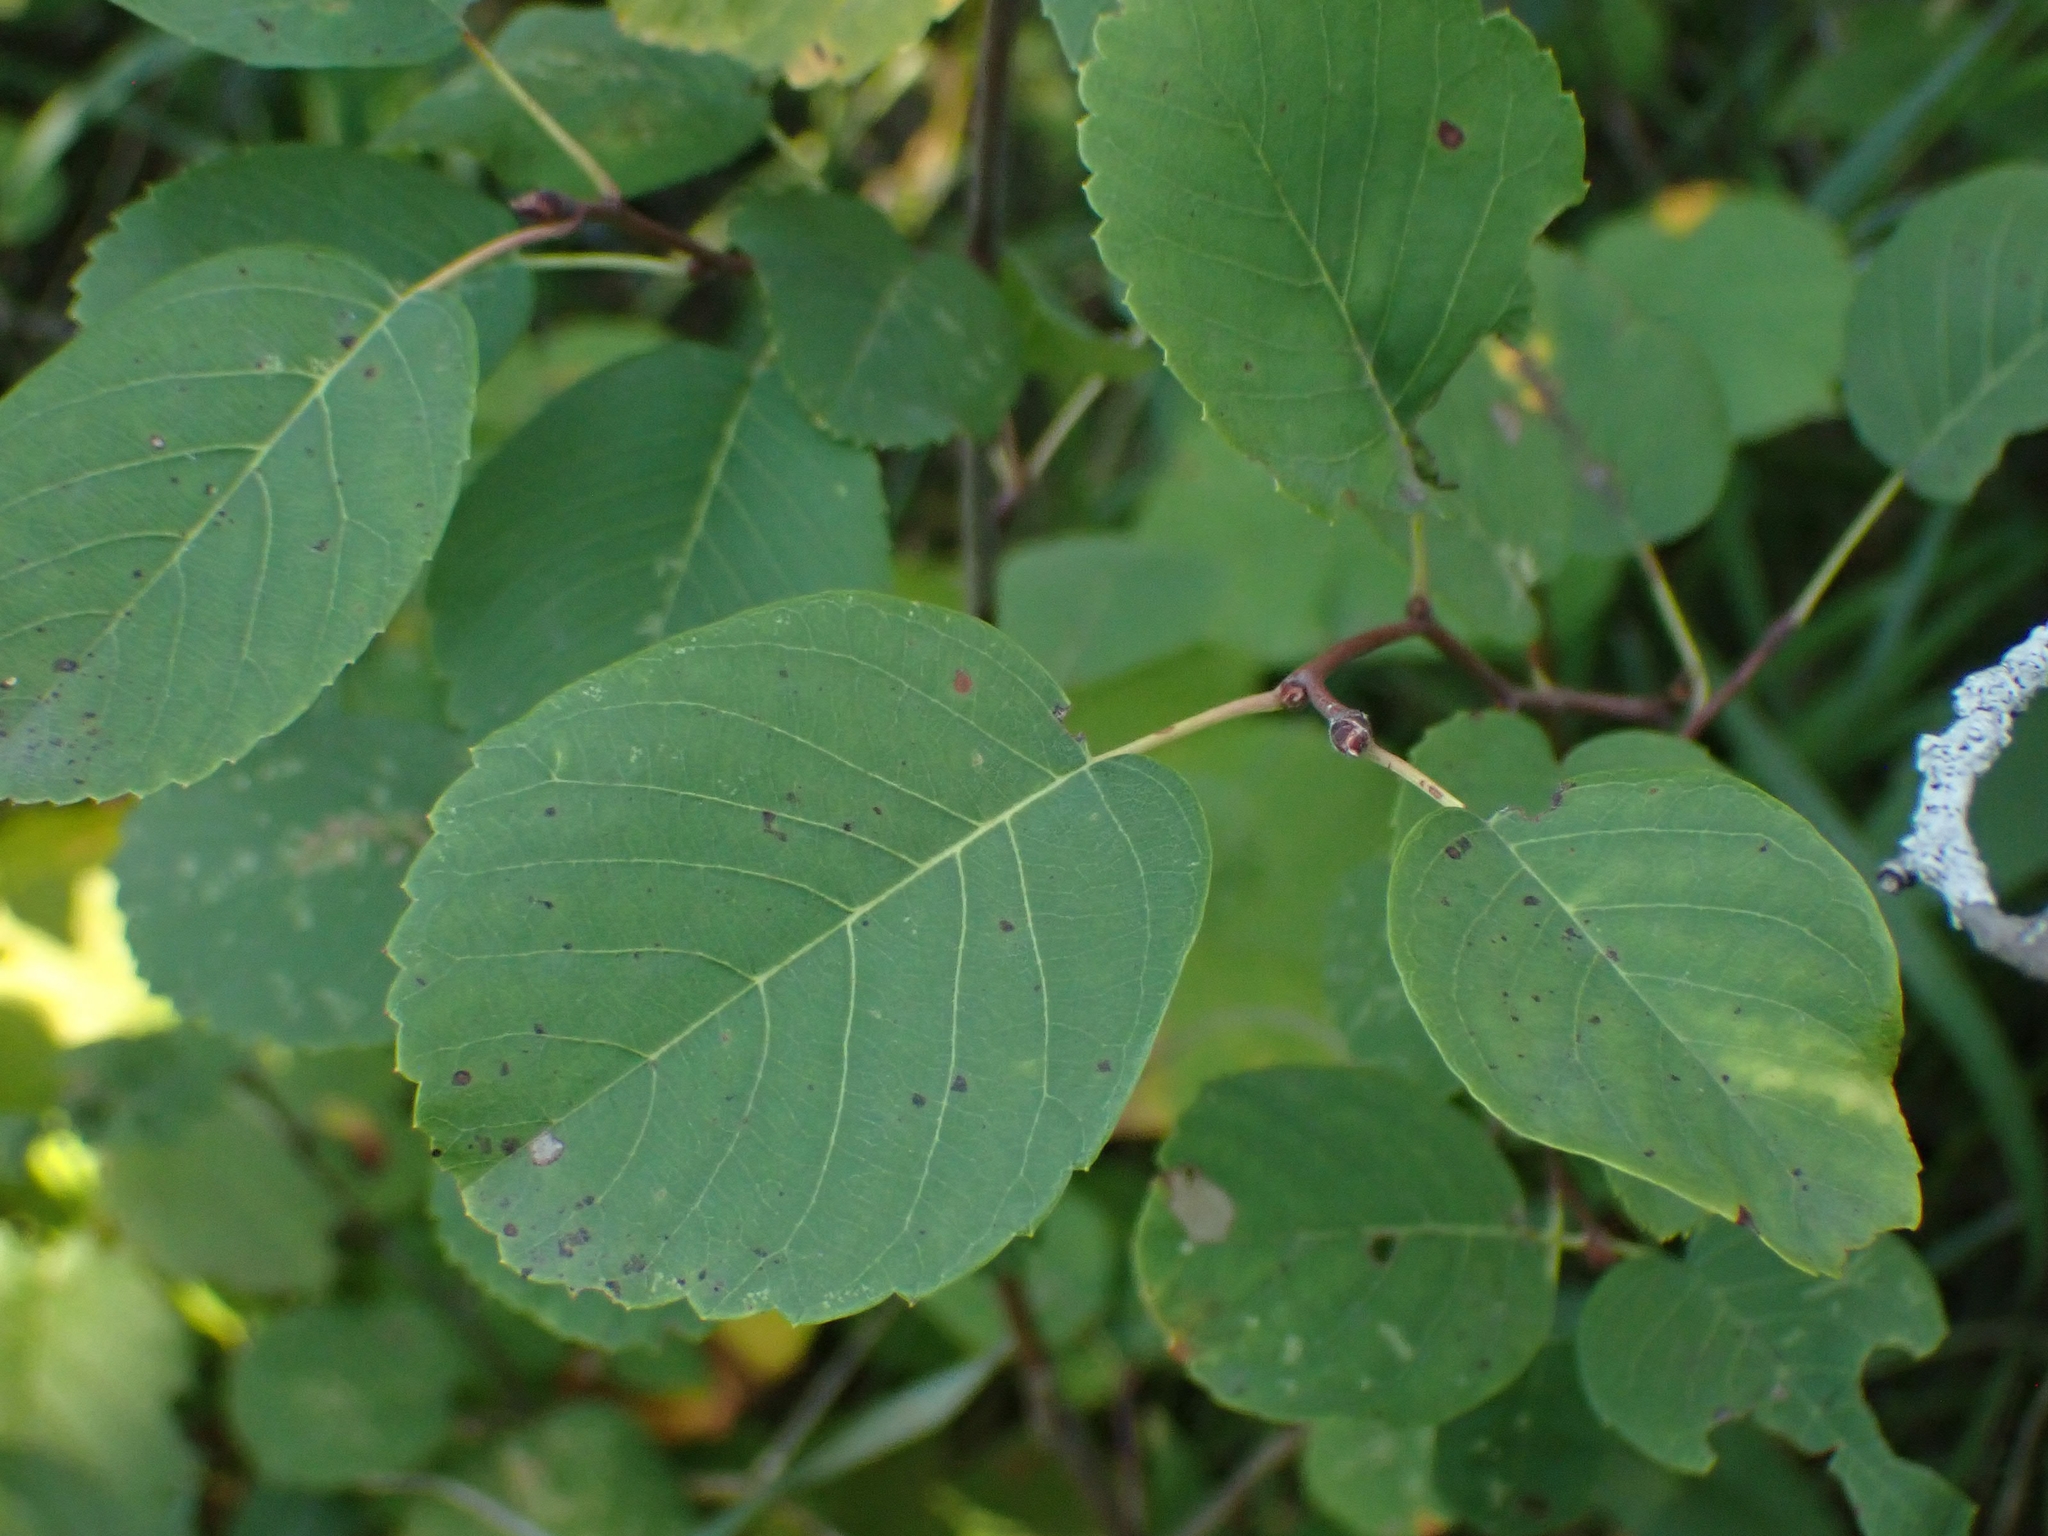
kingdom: Plantae
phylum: Tracheophyta
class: Magnoliopsida
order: Rosales
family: Rosaceae
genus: Amelanchier
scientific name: Amelanchier alnifolia
